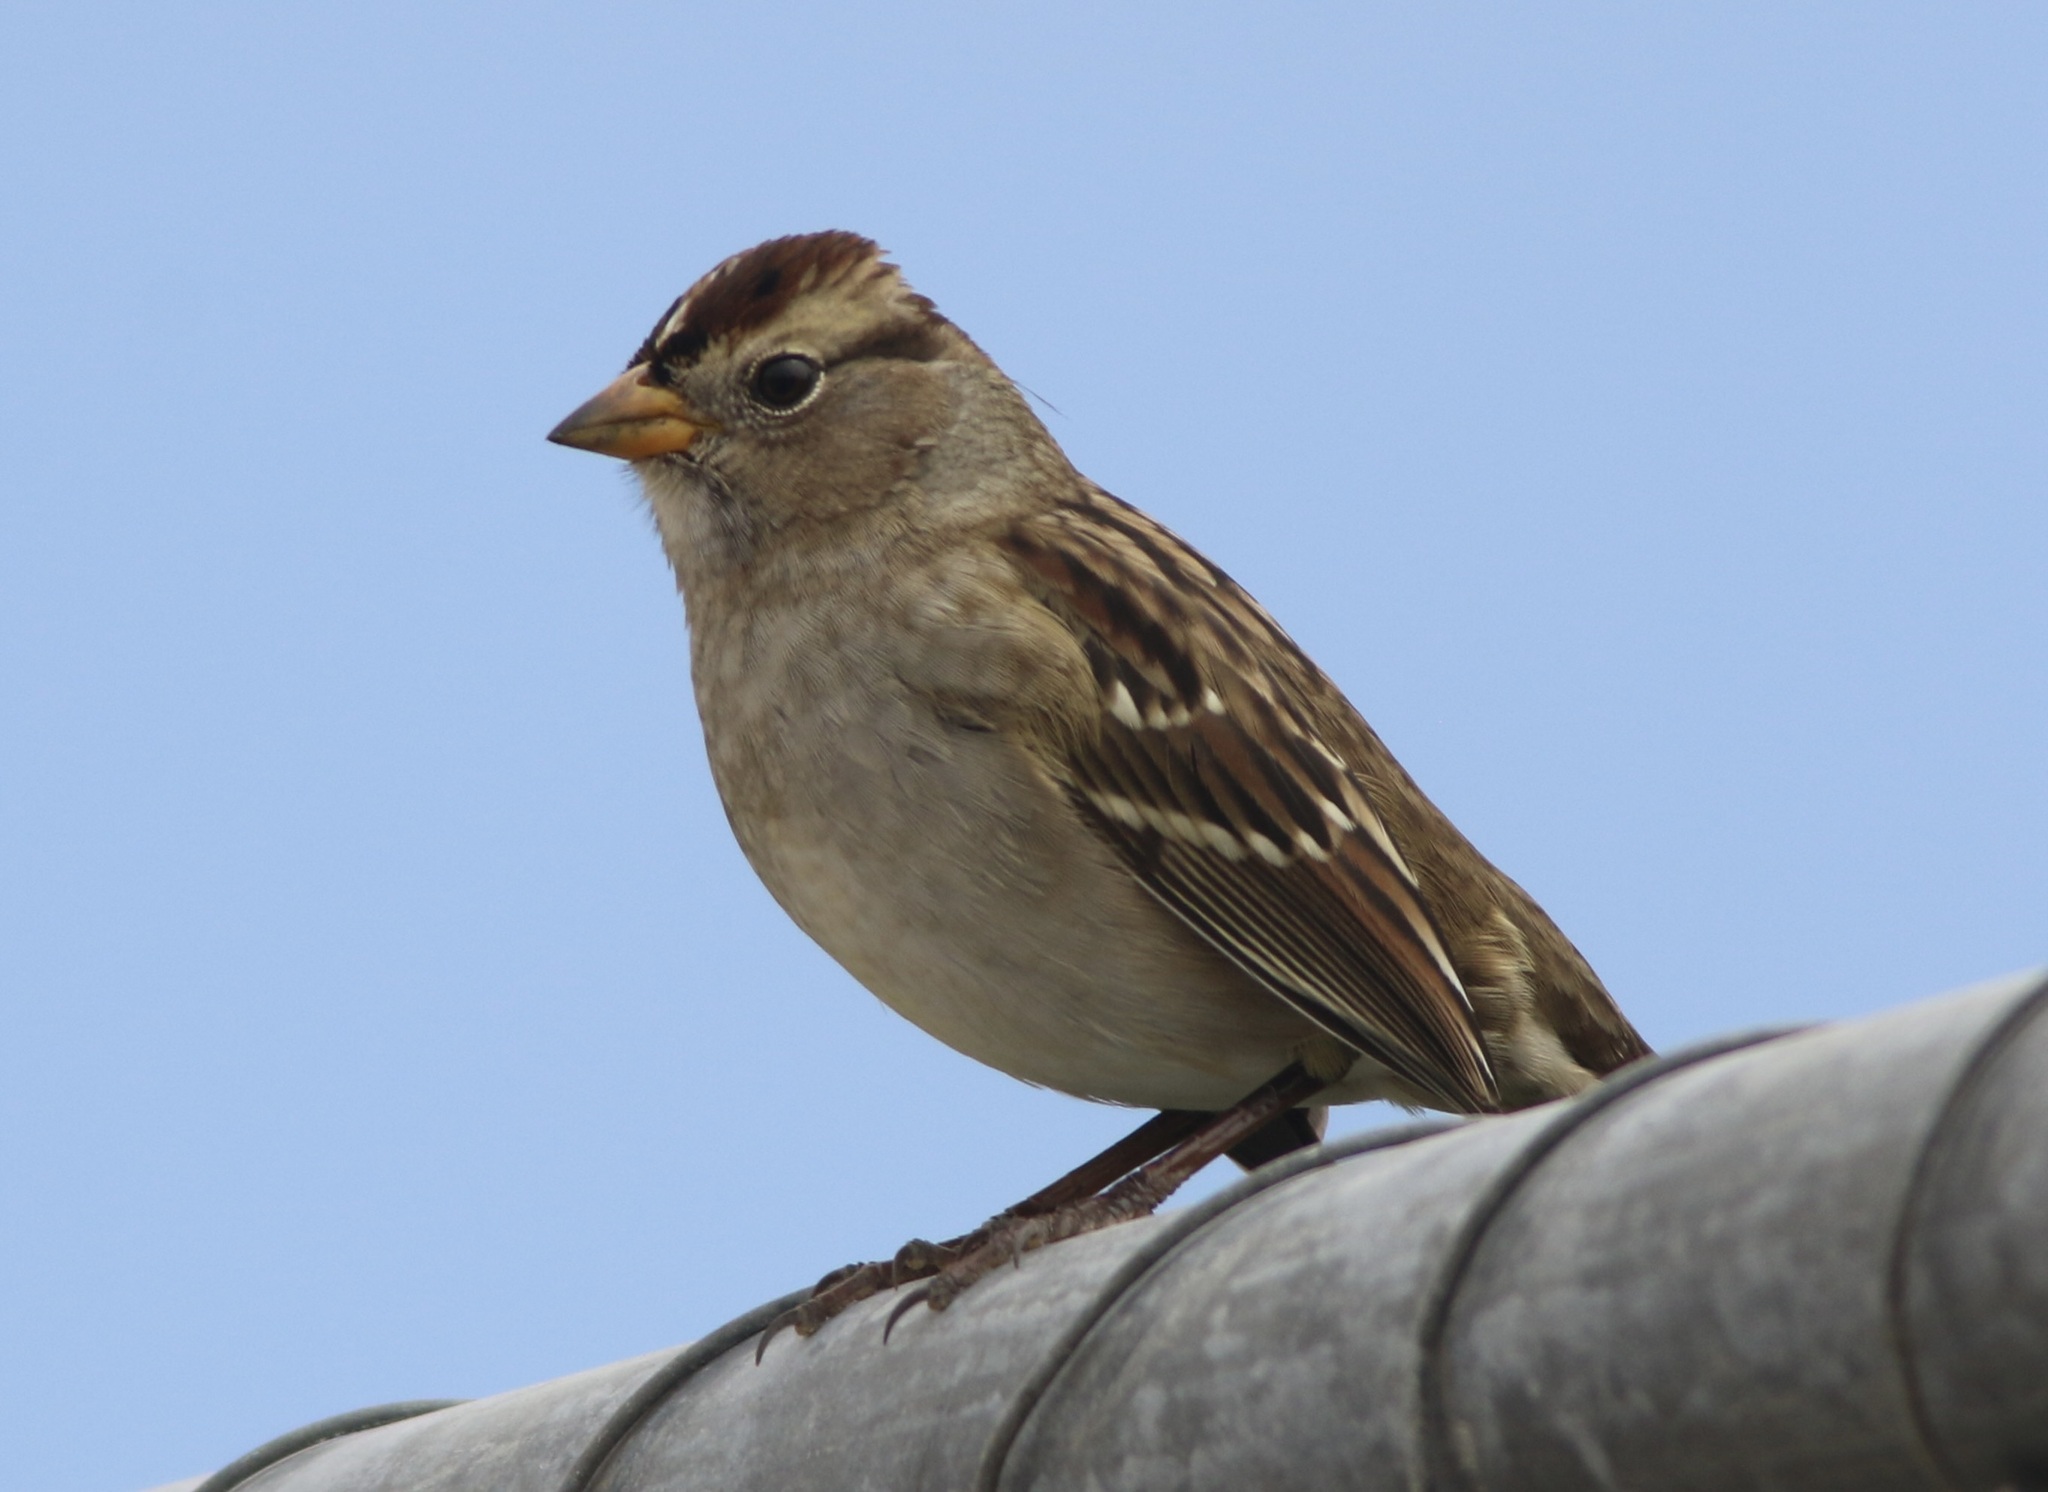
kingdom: Animalia
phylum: Chordata
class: Aves
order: Passeriformes
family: Passerellidae
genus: Zonotrichia
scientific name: Zonotrichia leucophrys
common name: White-crowned sparrow
